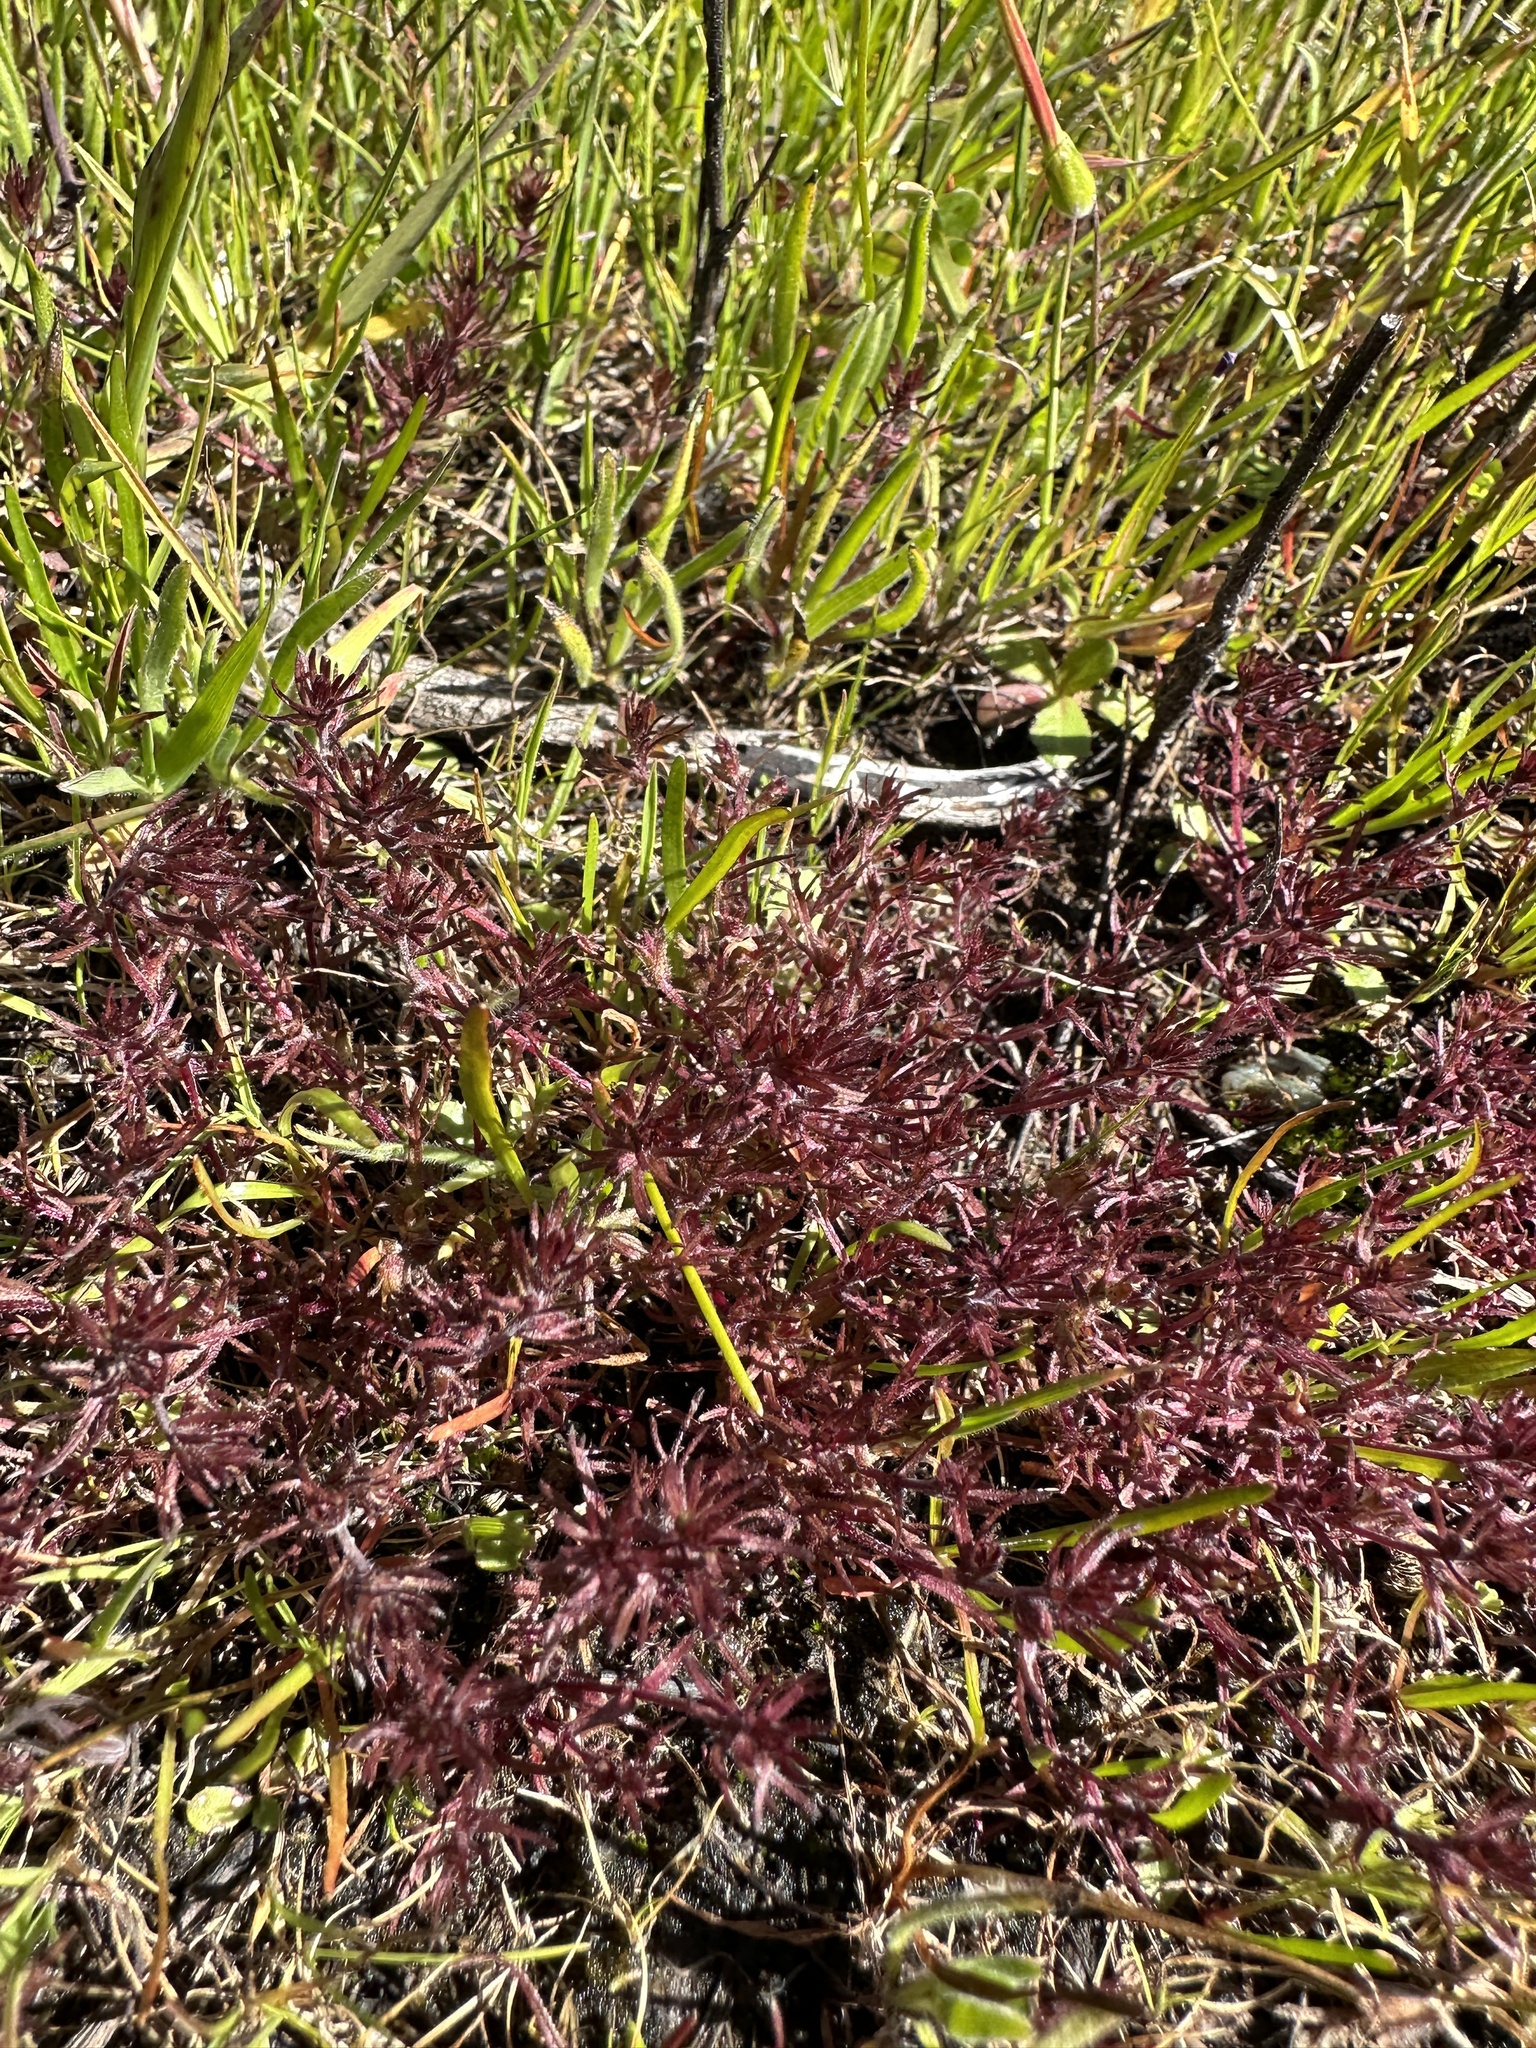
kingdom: Plantae
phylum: Tracheophyta
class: Magnoliopsida
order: Lamiales
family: Orobanchaceae
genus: Triphysaria
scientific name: Triphysaria pusilla
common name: Dwarf false owl-clover
